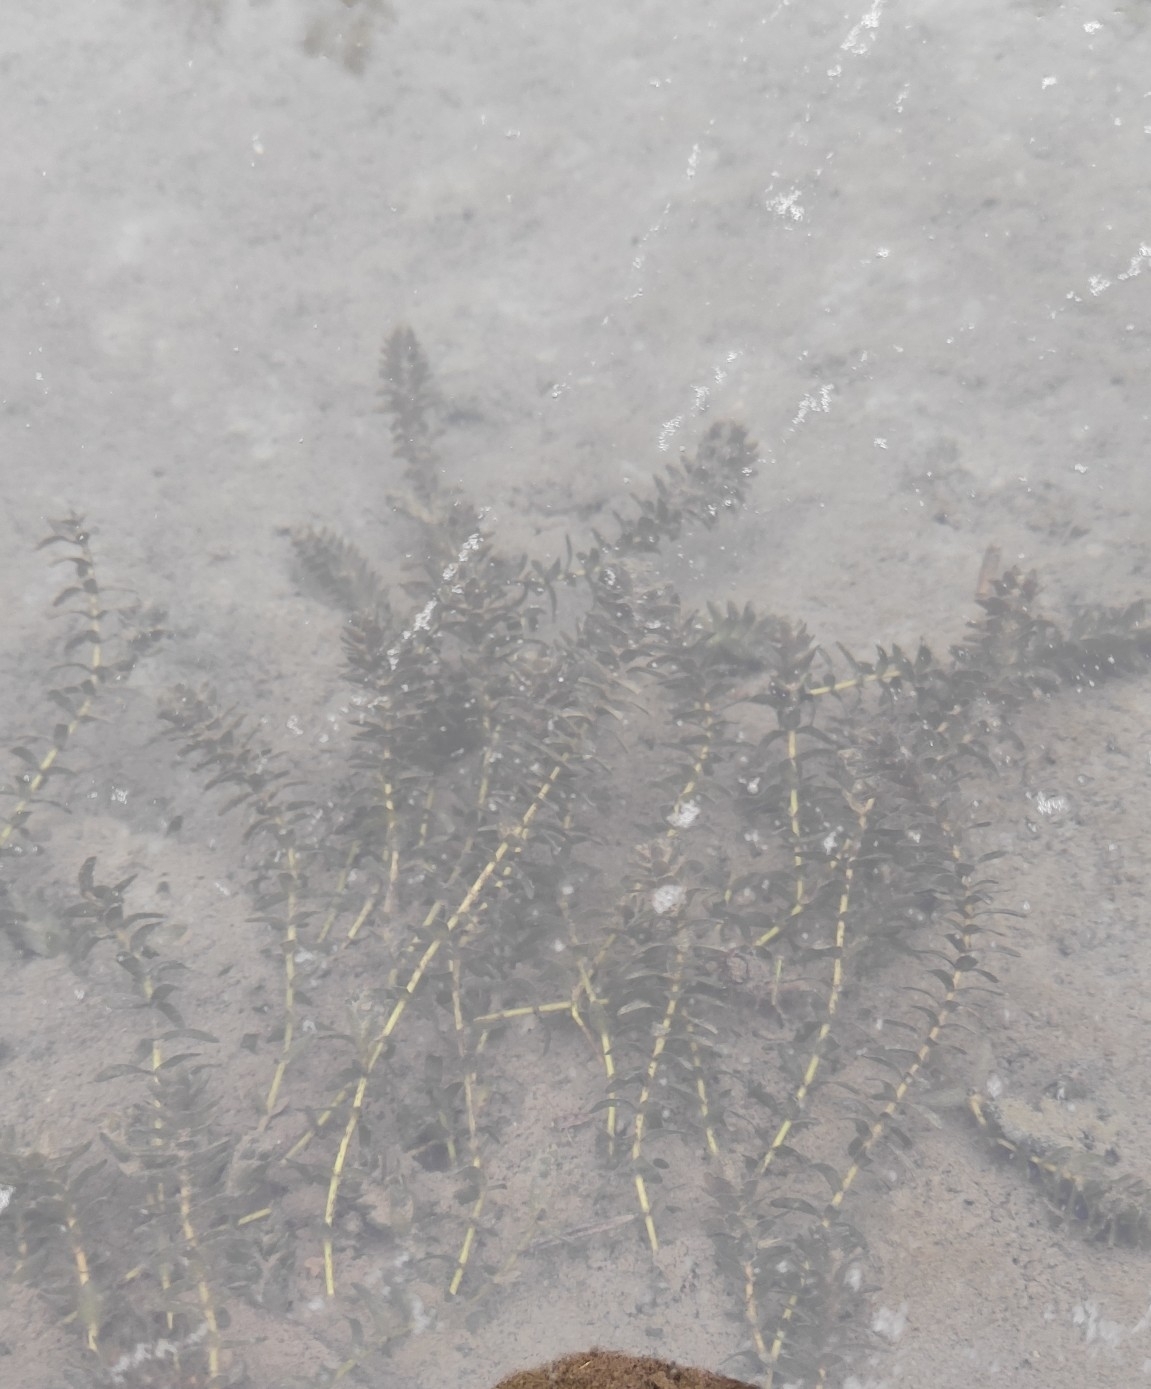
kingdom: Plantae
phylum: Tracheophyta
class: Liliopsida
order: Alismatales
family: Hydrocharitaceae
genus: Elodea
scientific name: Elodea canadensis
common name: Canadian waterweed
